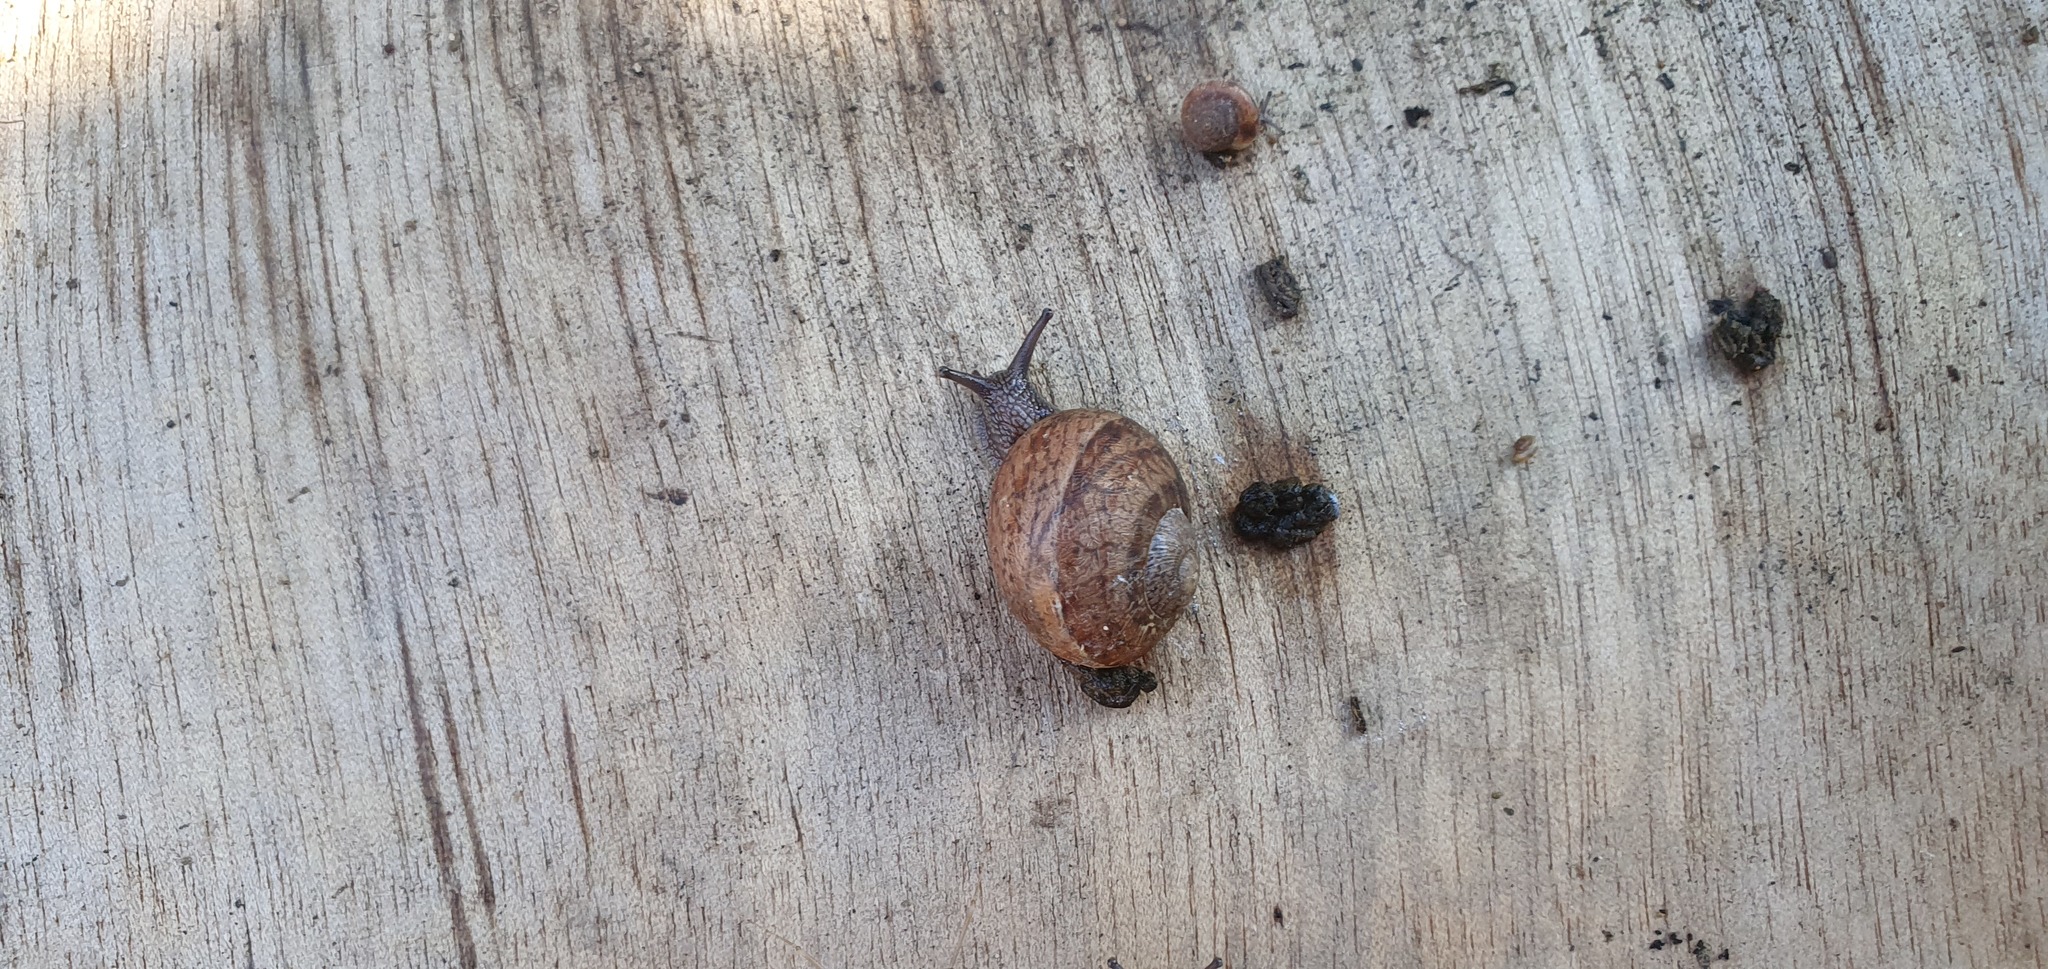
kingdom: Animalia
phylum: Mollusca
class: Gastropoda
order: Stylommatophora
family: Helicidae
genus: Cornu
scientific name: Cornu aspersum
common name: Brown garden snail
